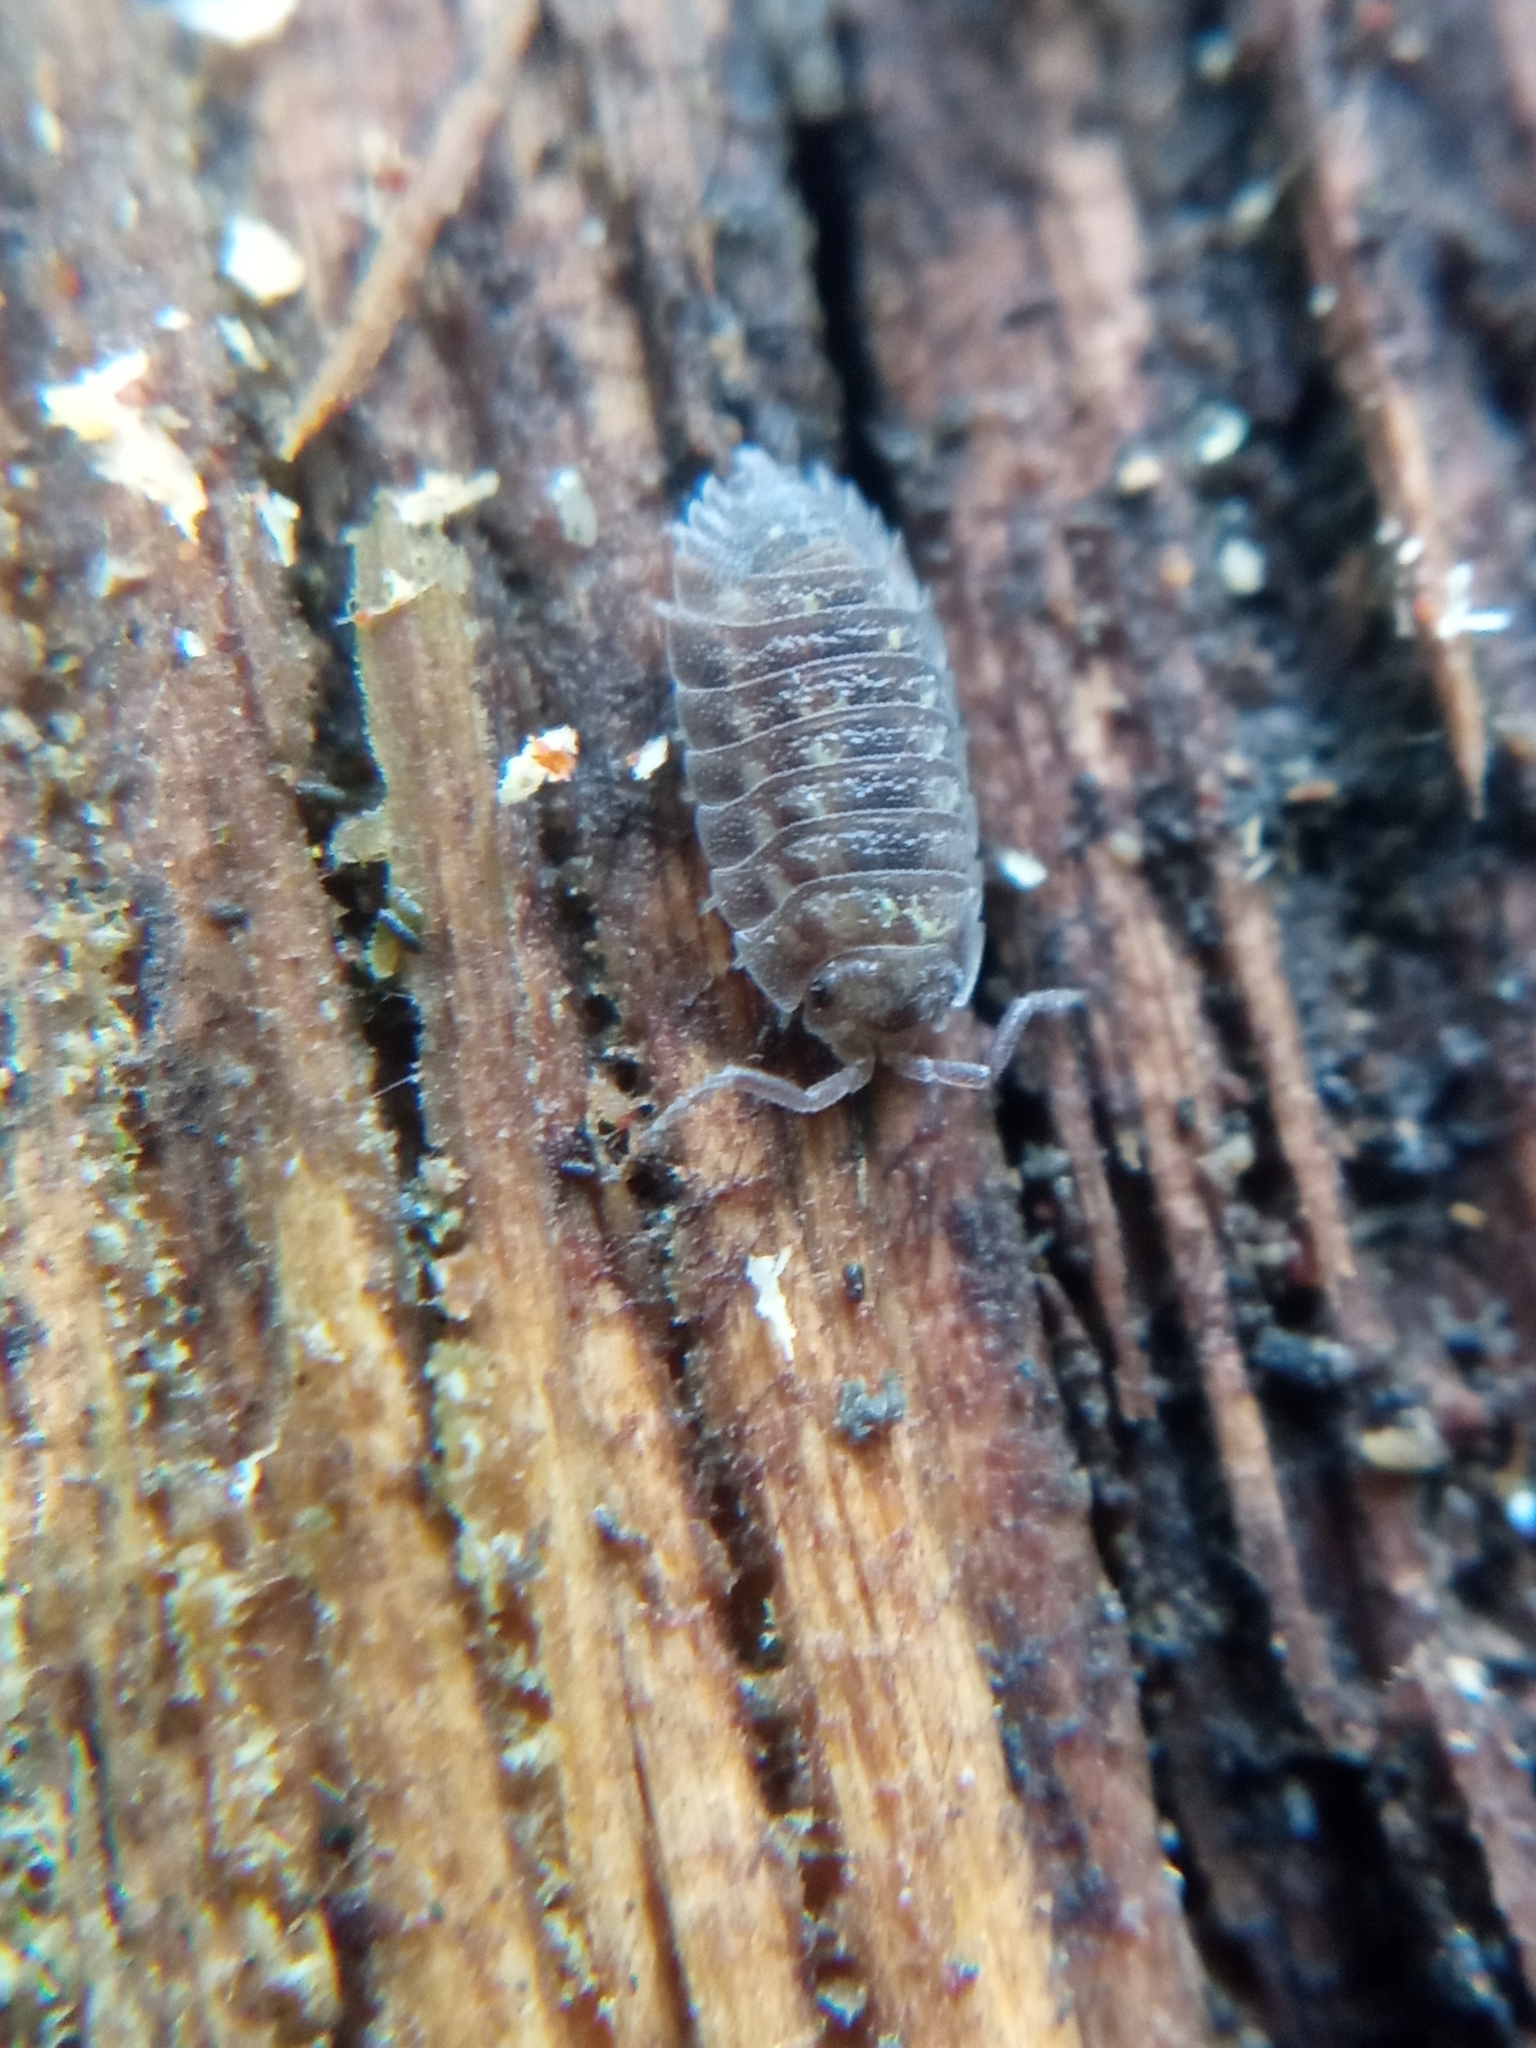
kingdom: Animalia
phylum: Arthropoda
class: Malacostraca
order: Isopoda
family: Oniscidae
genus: Oniscus
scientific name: Oniscus asellus
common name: Common shiny woodlouse
